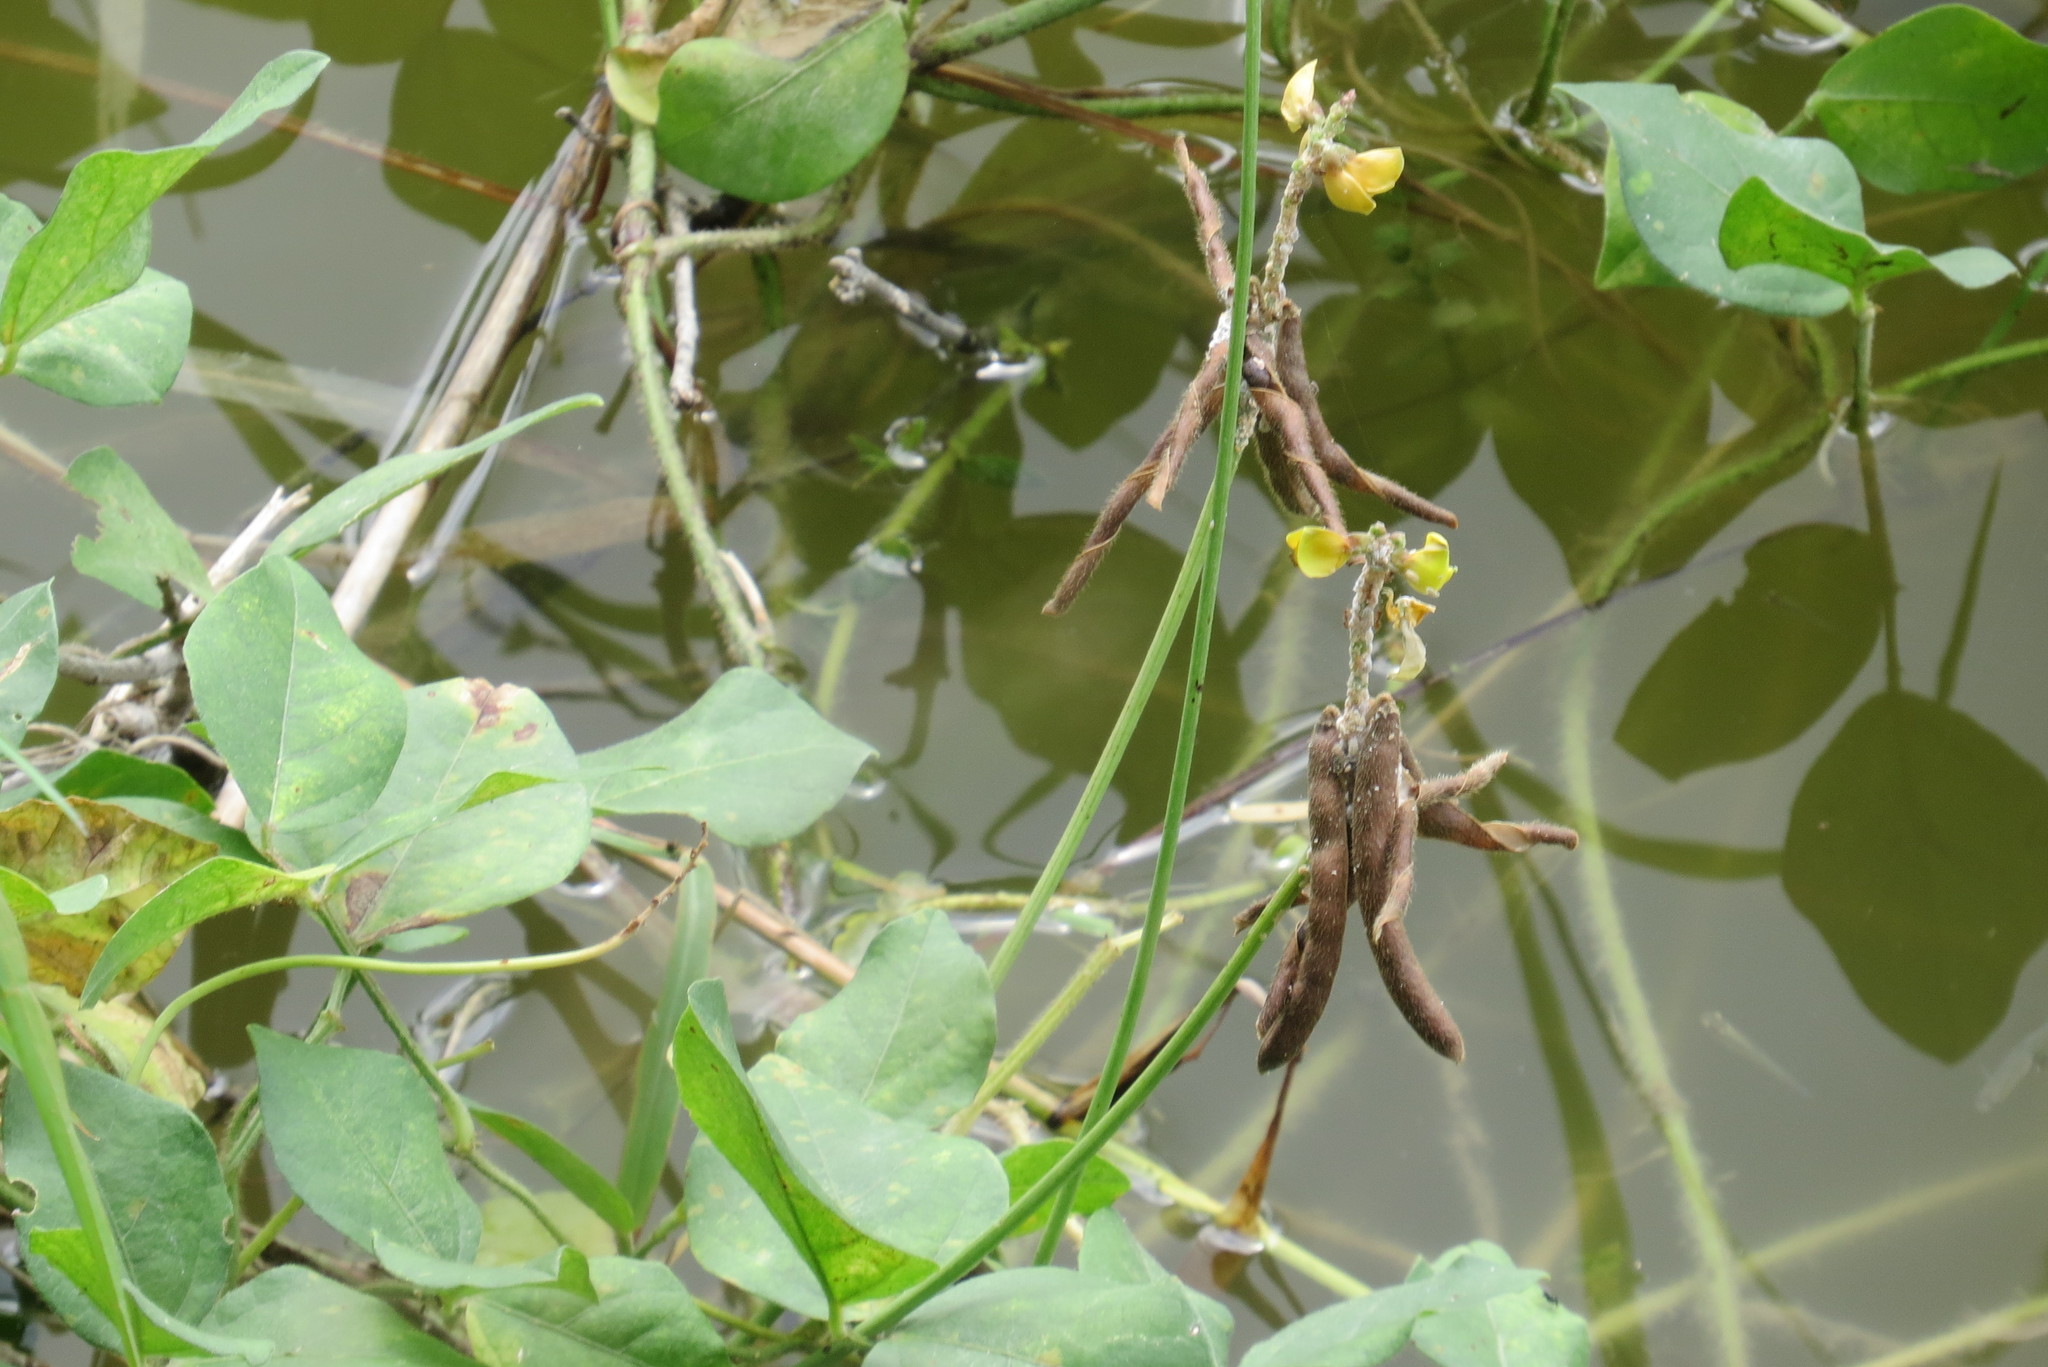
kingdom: Plantae
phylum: Tracheophyta
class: Magnoliopsida
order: Fabales
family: Fabaceae
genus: Vigna
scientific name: Vigna luteola
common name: Hairypod cowpea
